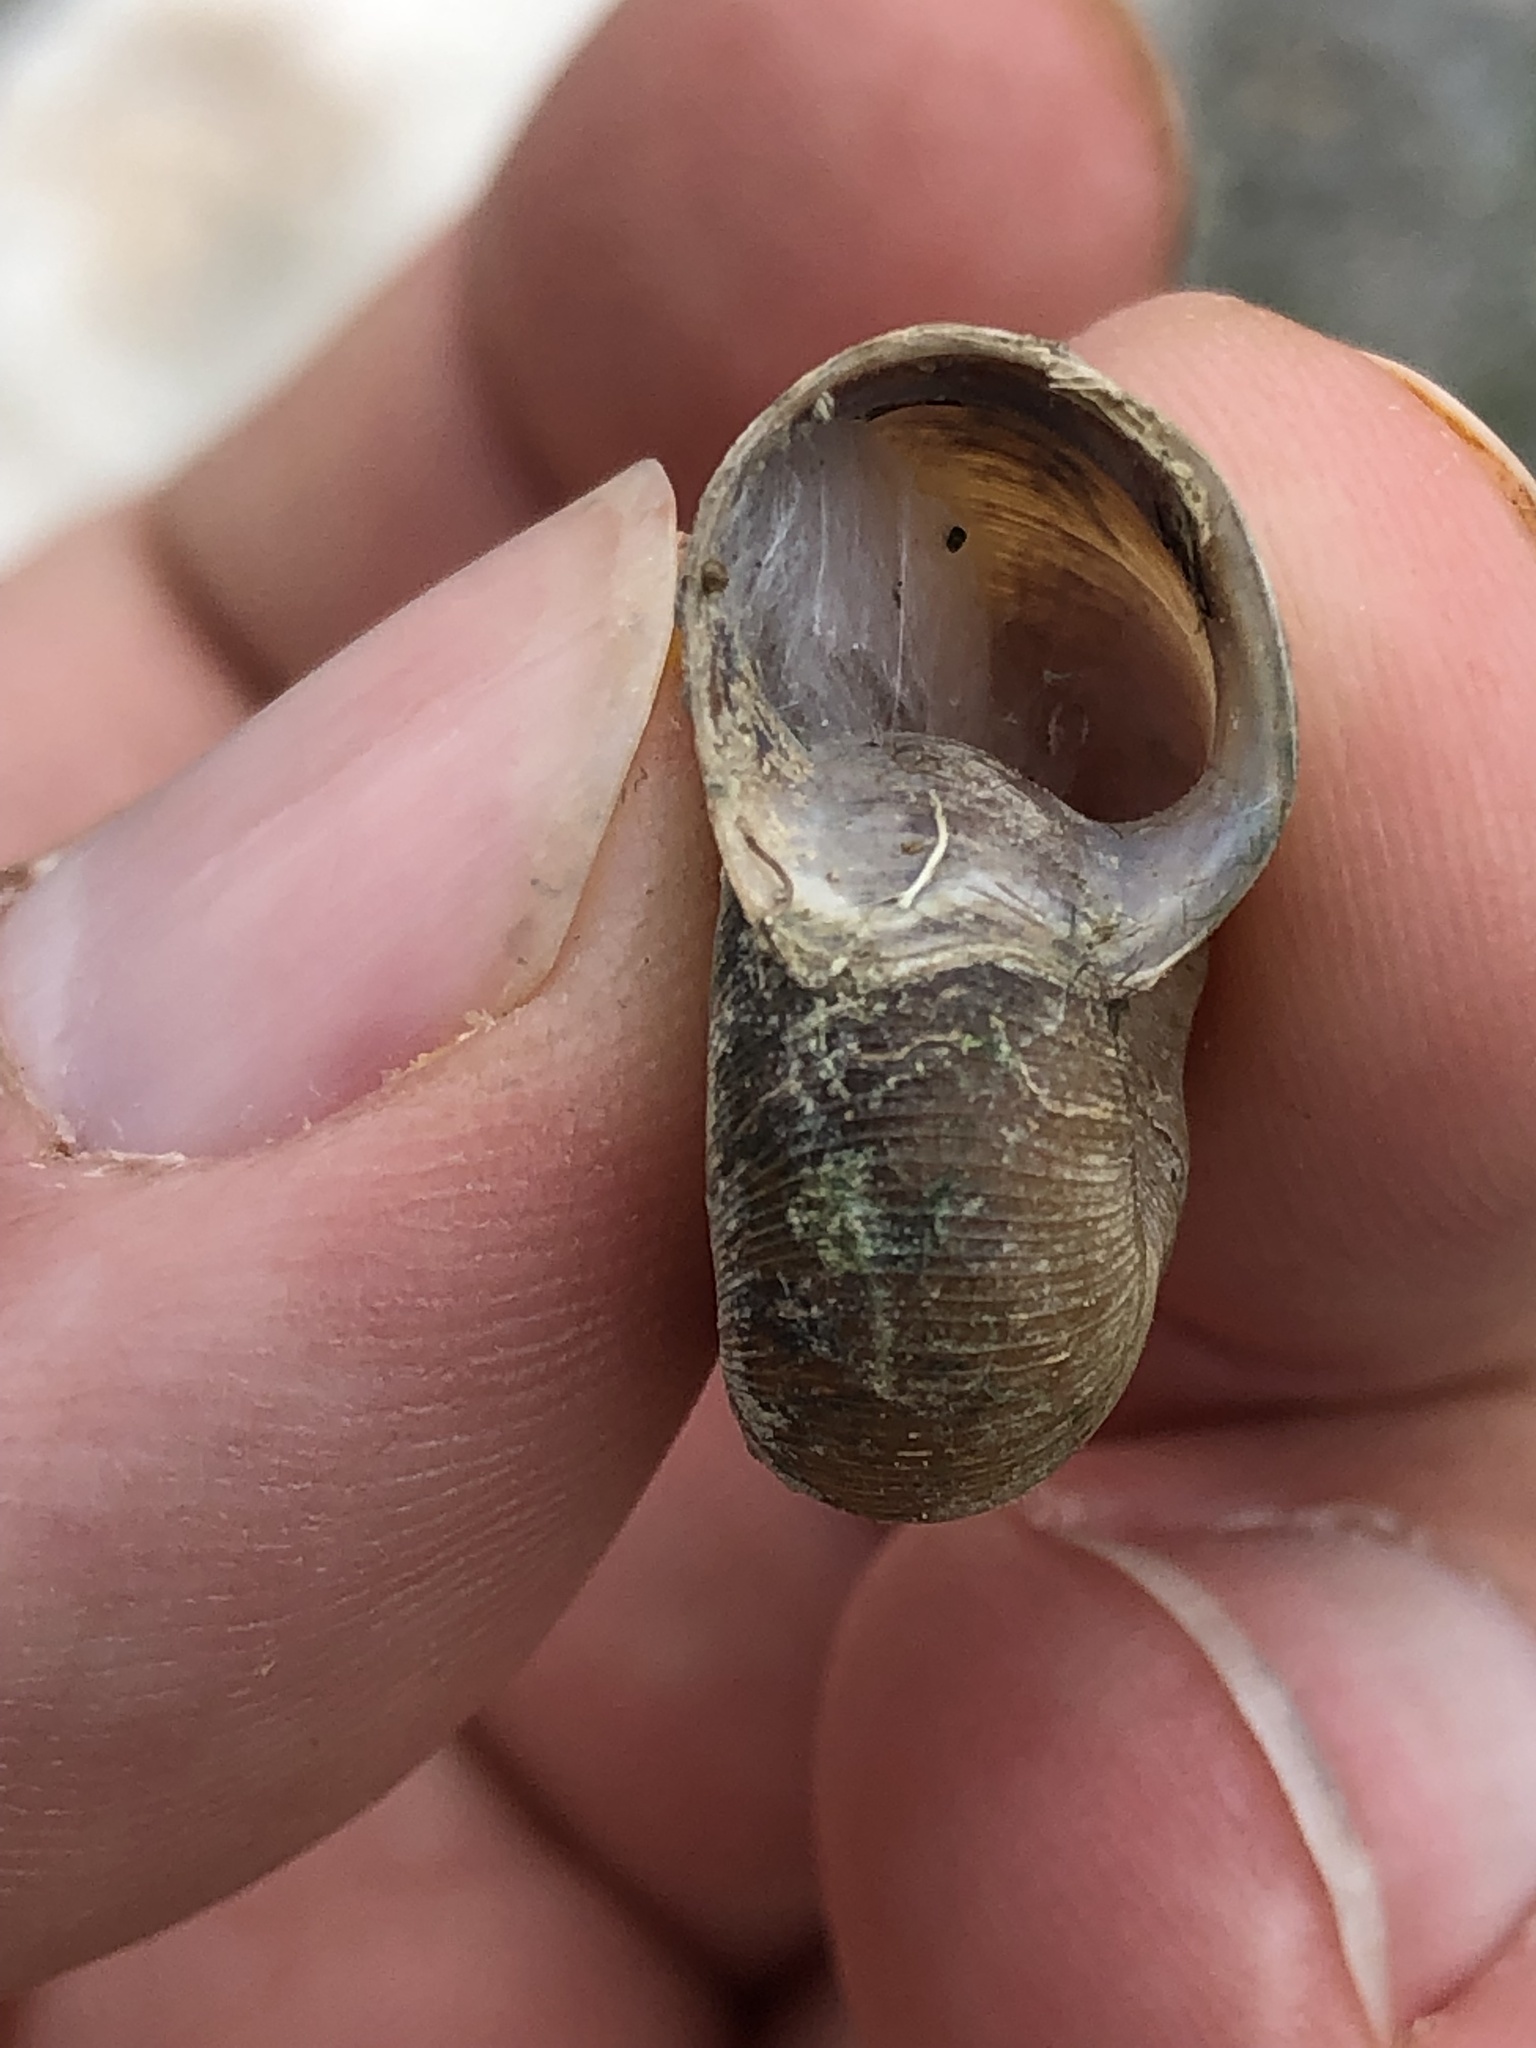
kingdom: Animalia
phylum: Mollusca
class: Gastropoda
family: Planorbidae
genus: Planorbella
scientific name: Planorbella trivolvis
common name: Marsh rams-horn
